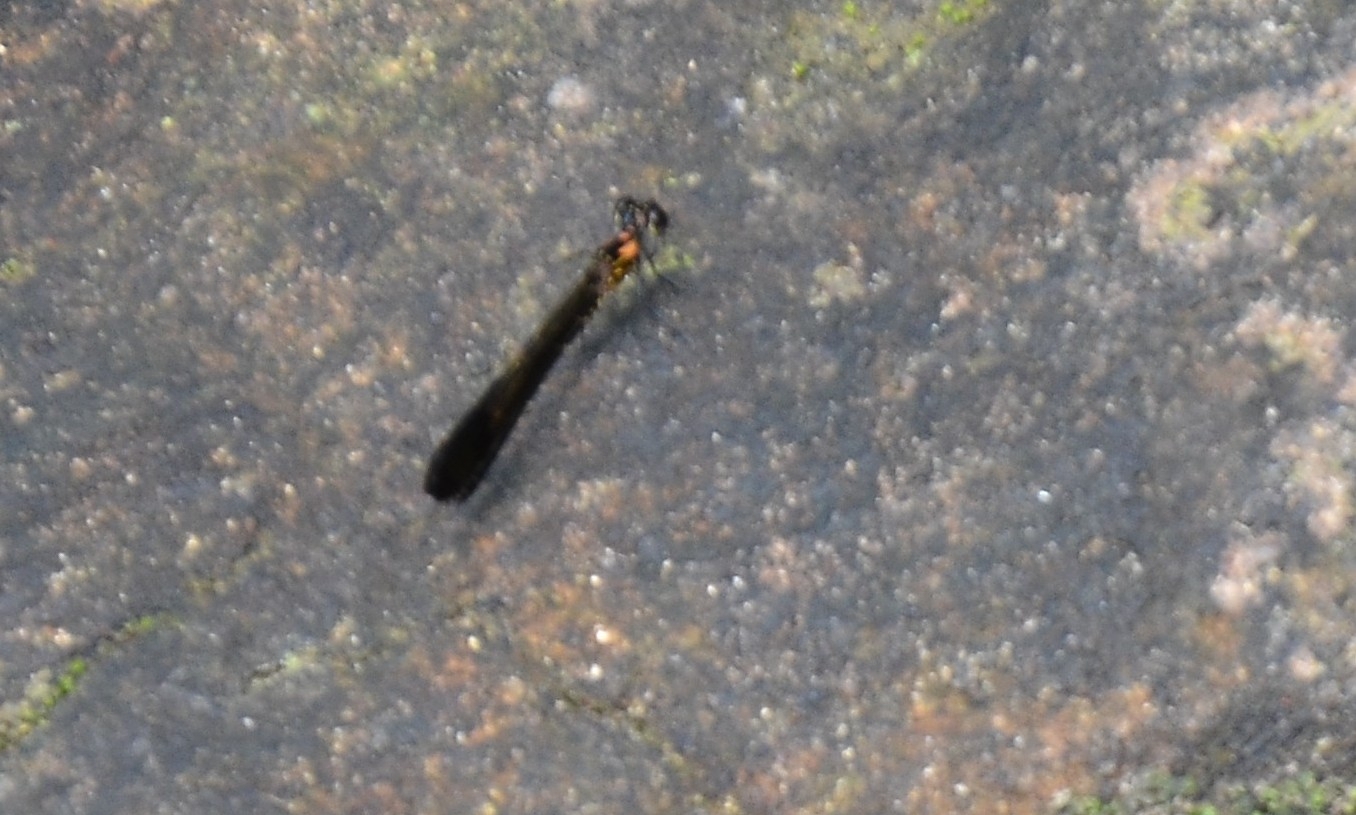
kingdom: Animalia
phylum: Arthropoda
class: Insecta
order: Odonata
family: Chlorocyphidae
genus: Heliocypha
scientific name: Heliocypha bisignata
